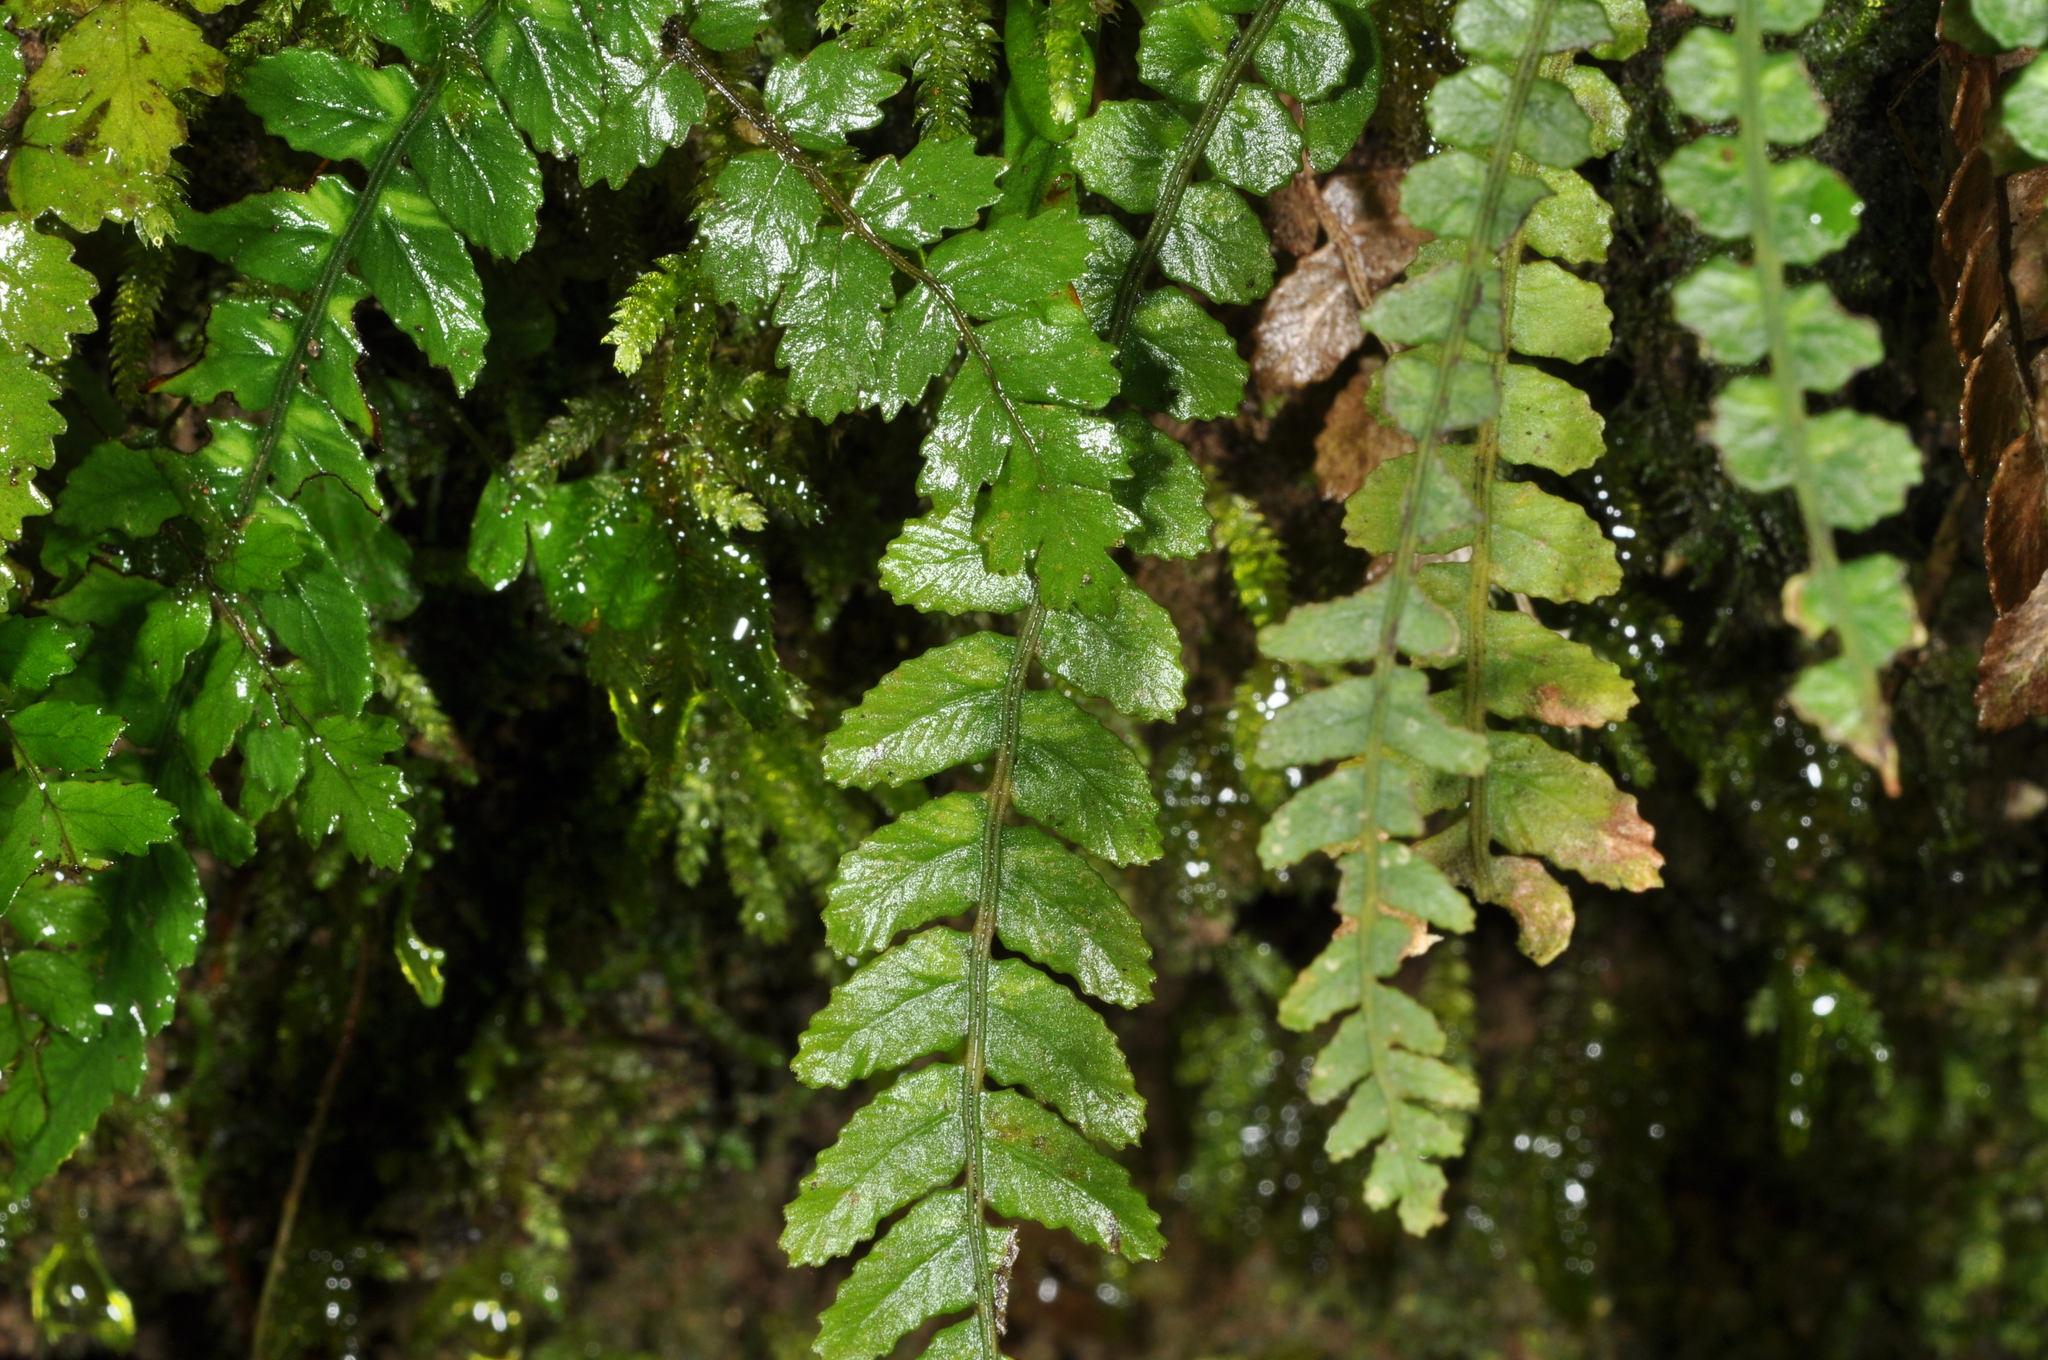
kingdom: Plantae
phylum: Tracheophyta
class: Polypodiopsida
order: Polypodiales
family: Blechnaceae
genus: Austroblechnum
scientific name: Austroblechnum membranaceum
